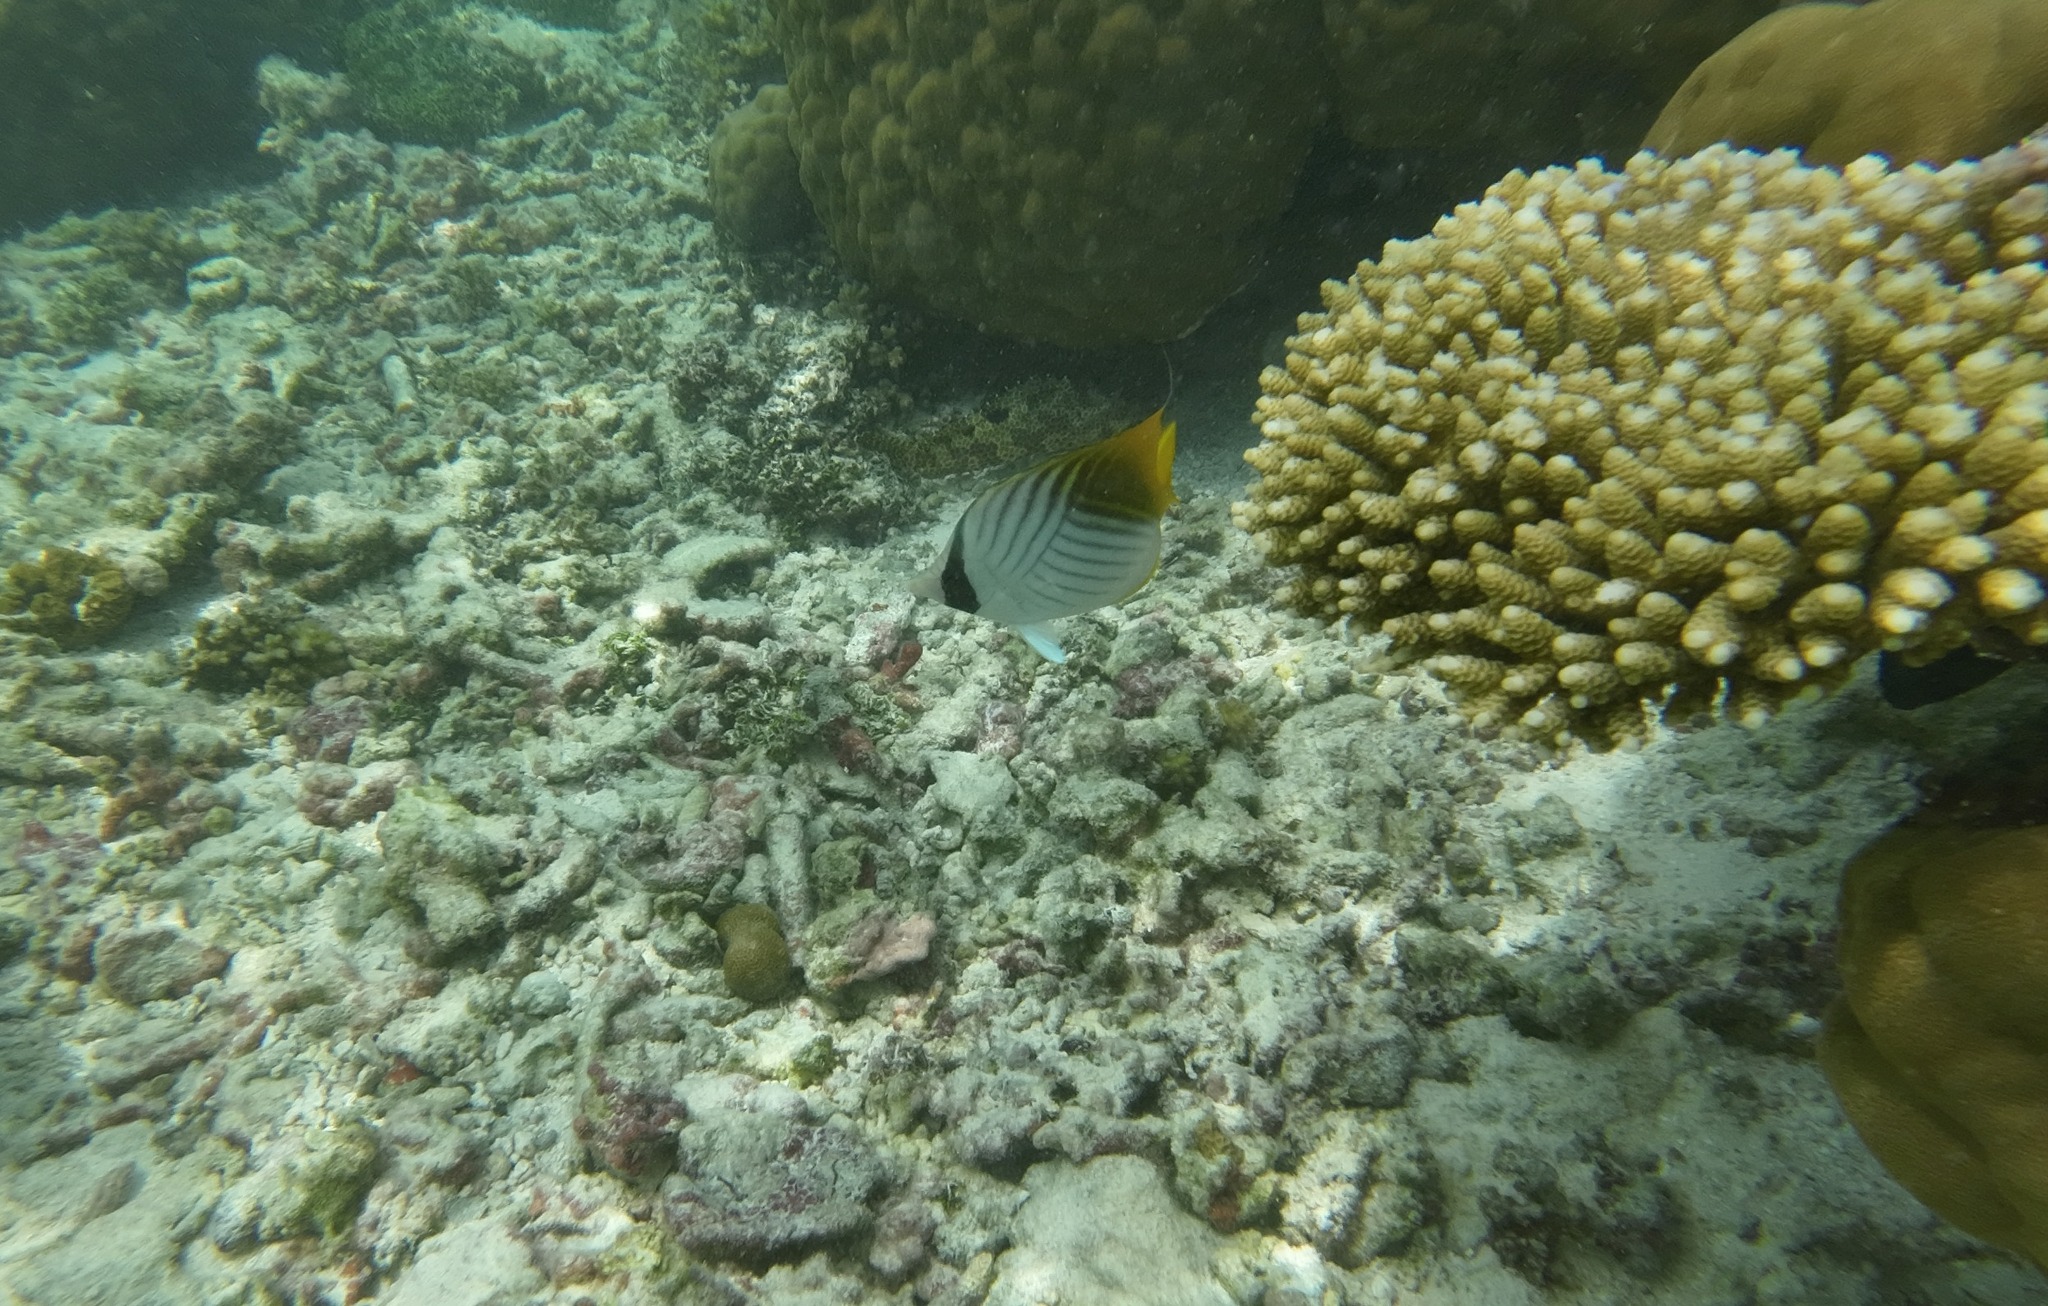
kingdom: Animalia
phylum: Chordata
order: Perciformes
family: Chaetodontidae
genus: Chaetodon
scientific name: Chaetodon auriga
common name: Threadfin butterflyfish
